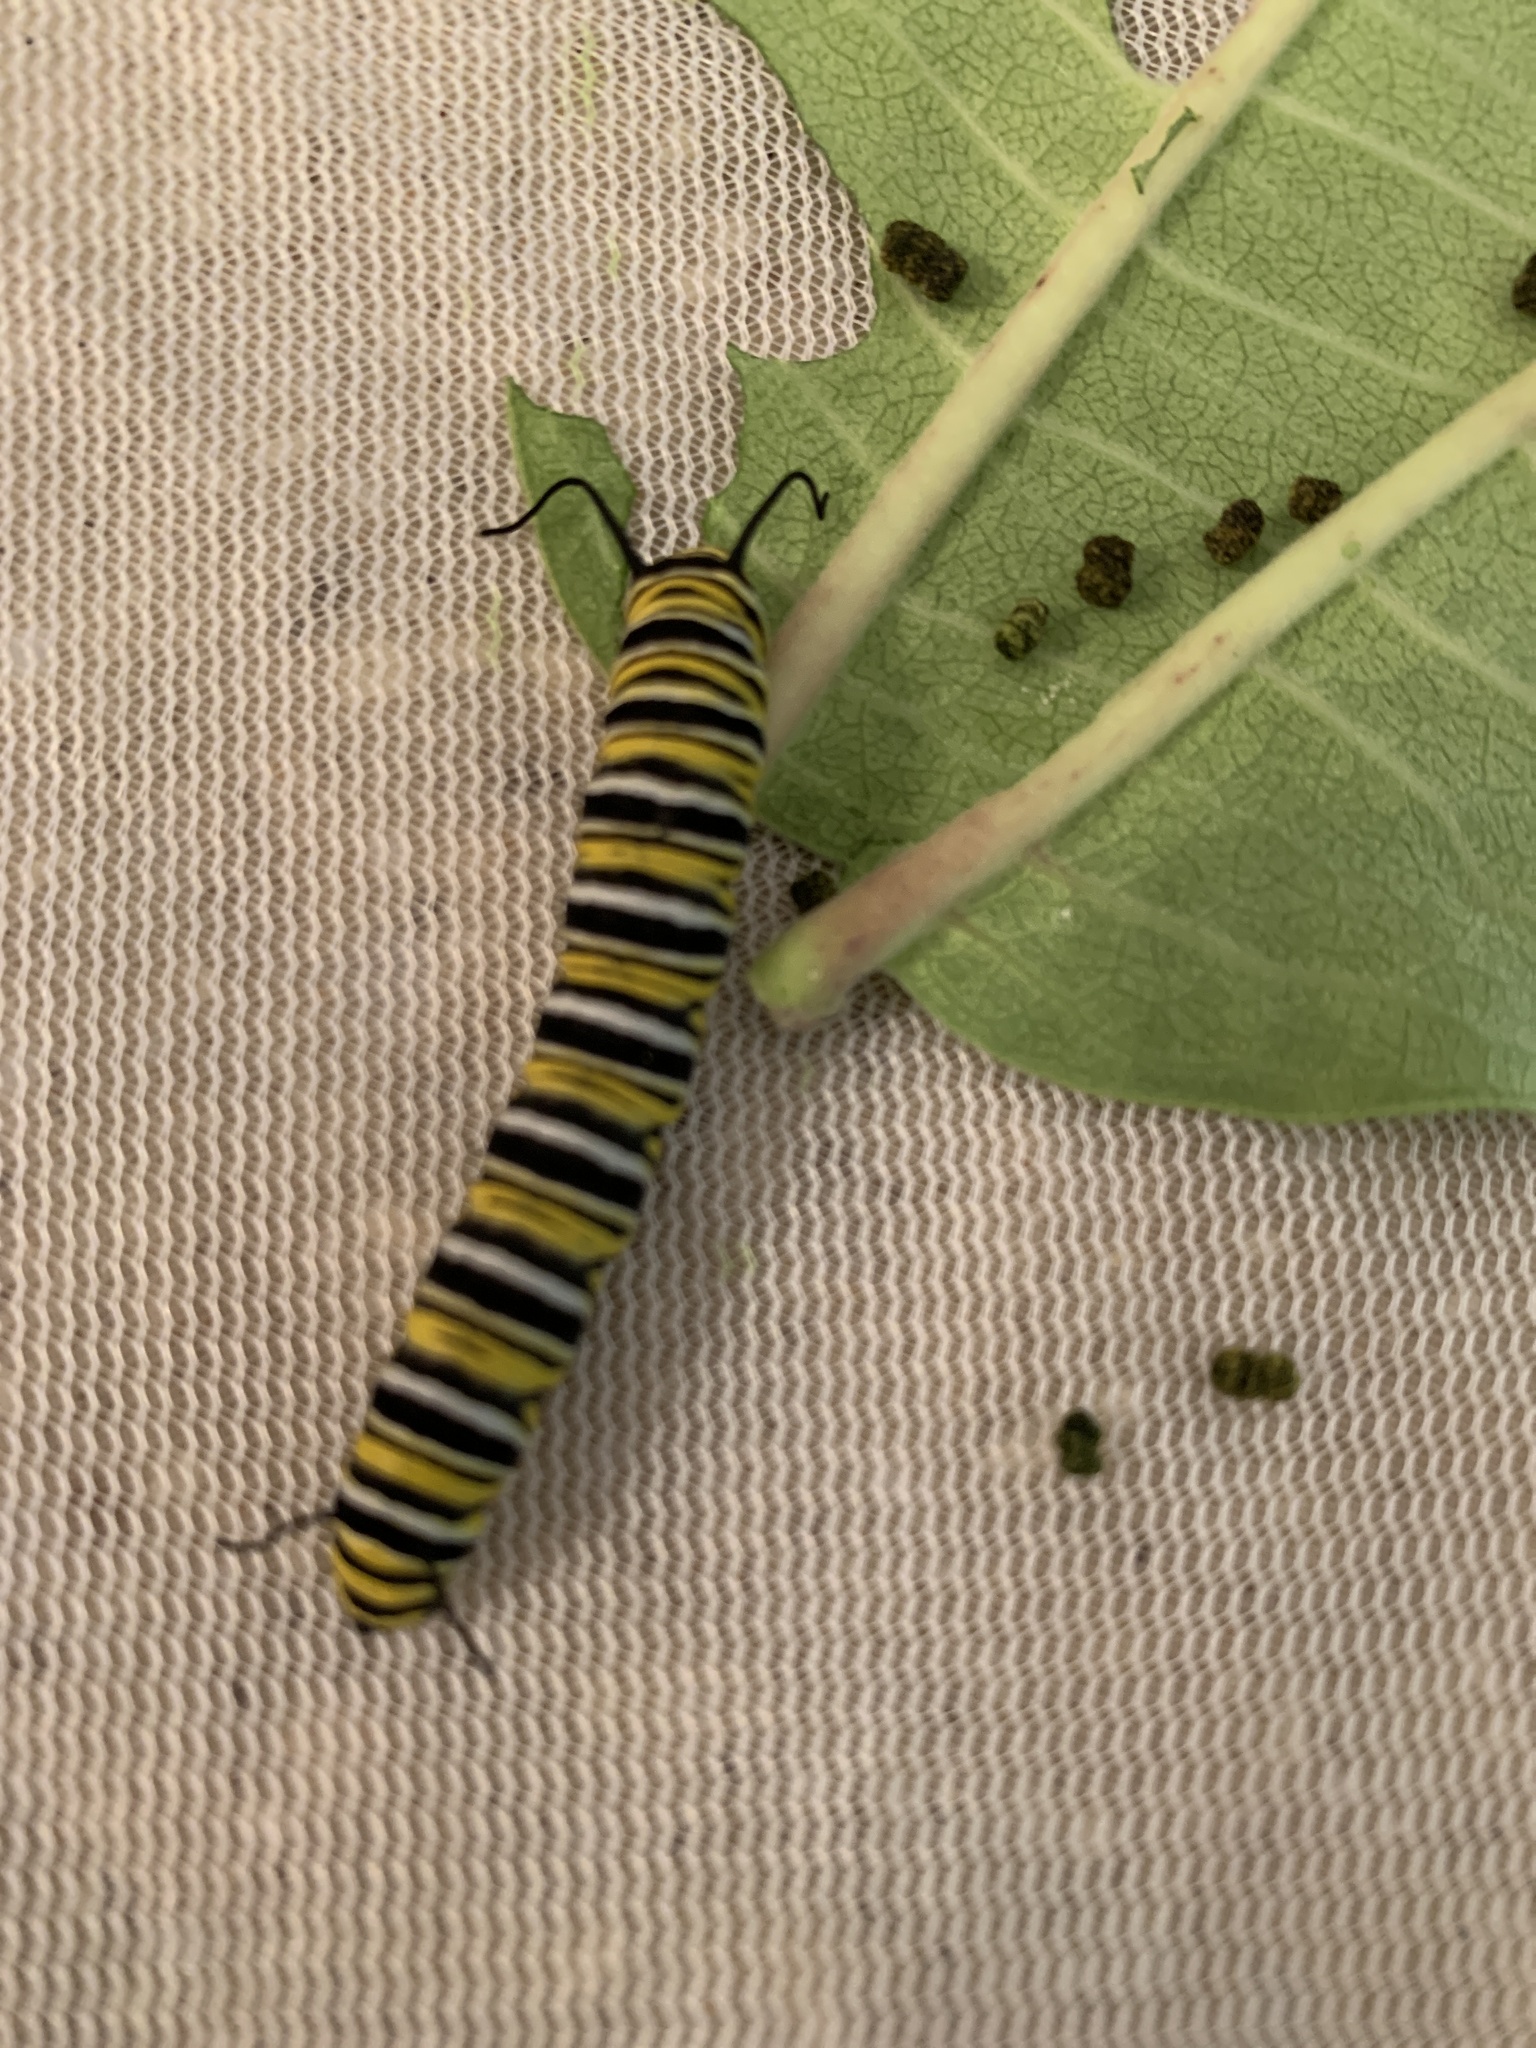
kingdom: Animalia
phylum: Arthropoda
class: Insecta
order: Lepidoptera
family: Nymphalidae
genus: Danaus
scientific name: Danaus plexippus
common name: Monarch
